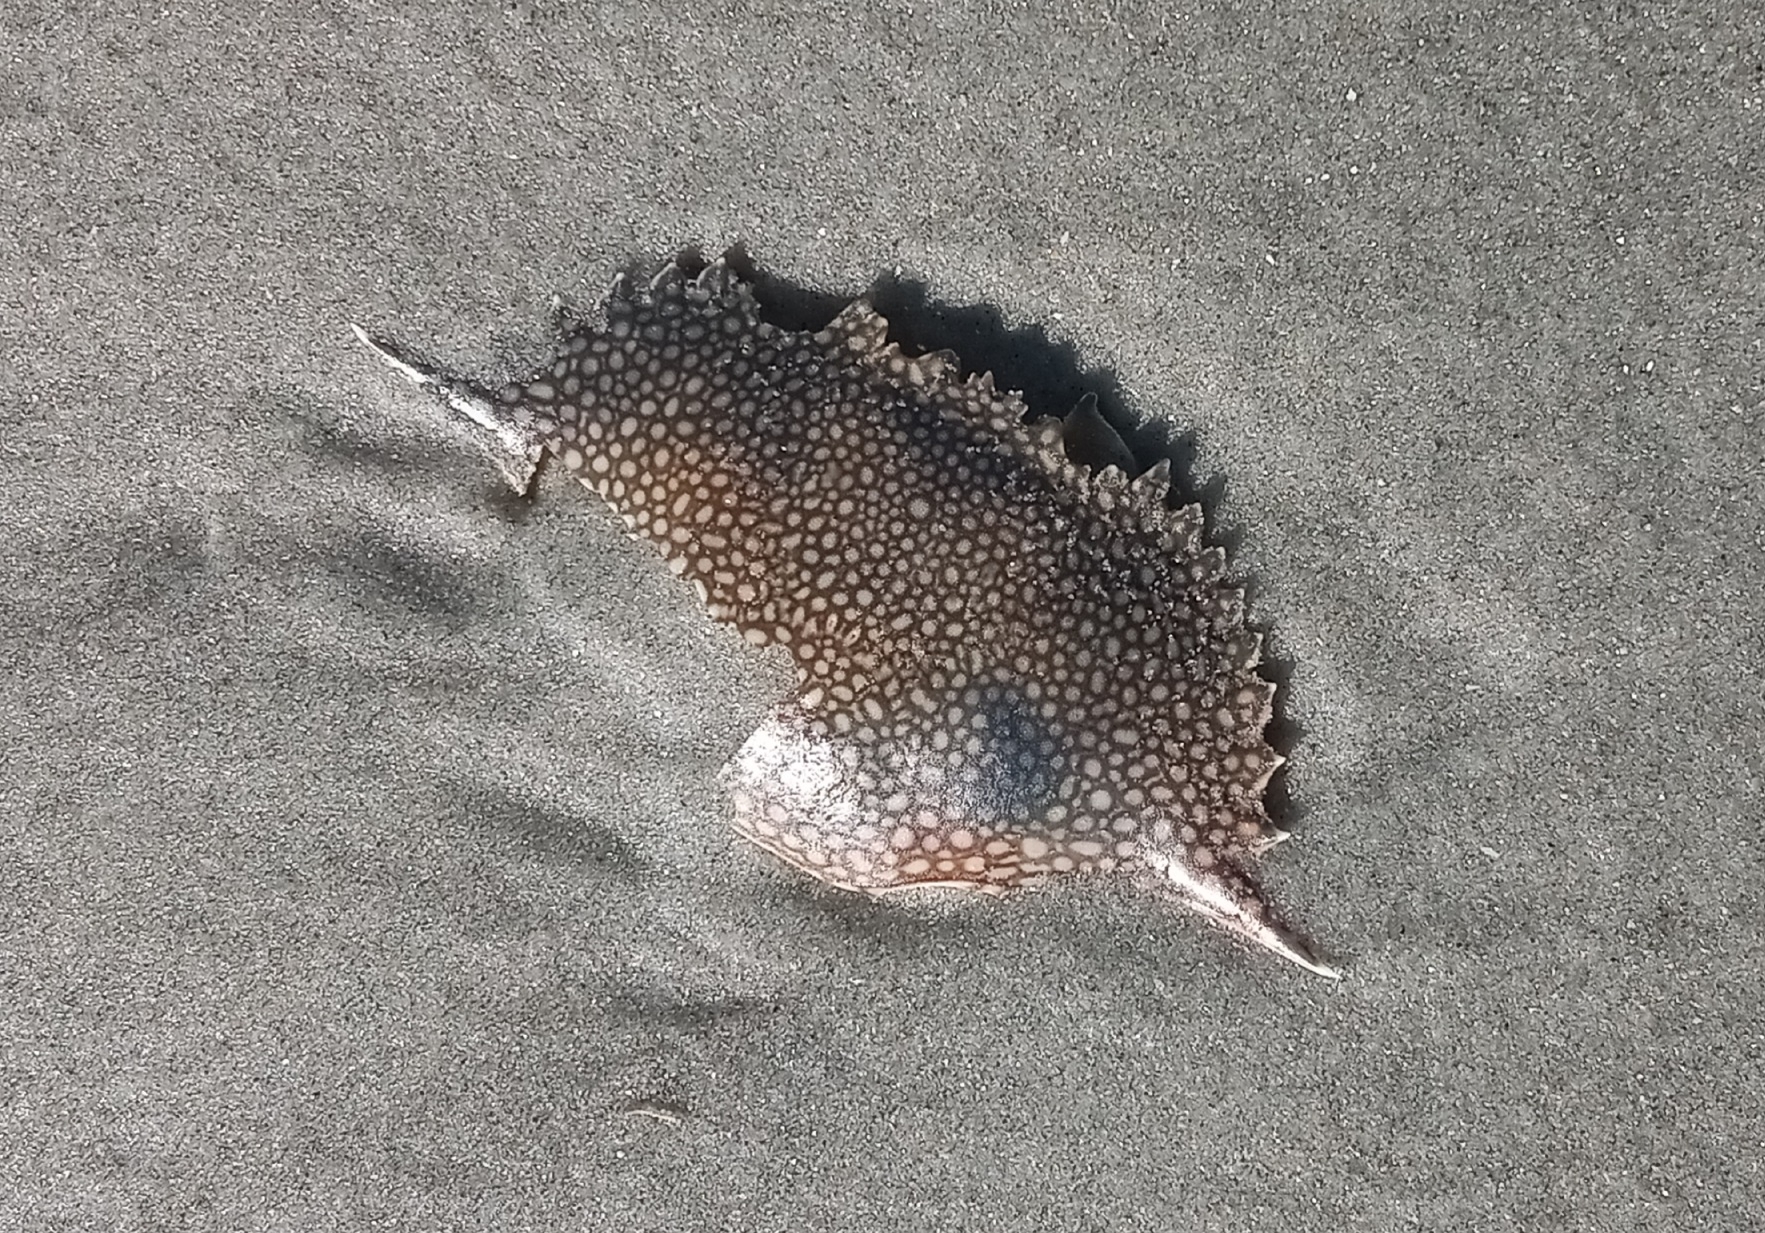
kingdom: Animalia
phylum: Arthropoda
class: Malacostraca
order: Decapoda
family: Portunidae
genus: Arenaeus
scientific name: Arenaeus cribrarius
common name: Speckled crab
